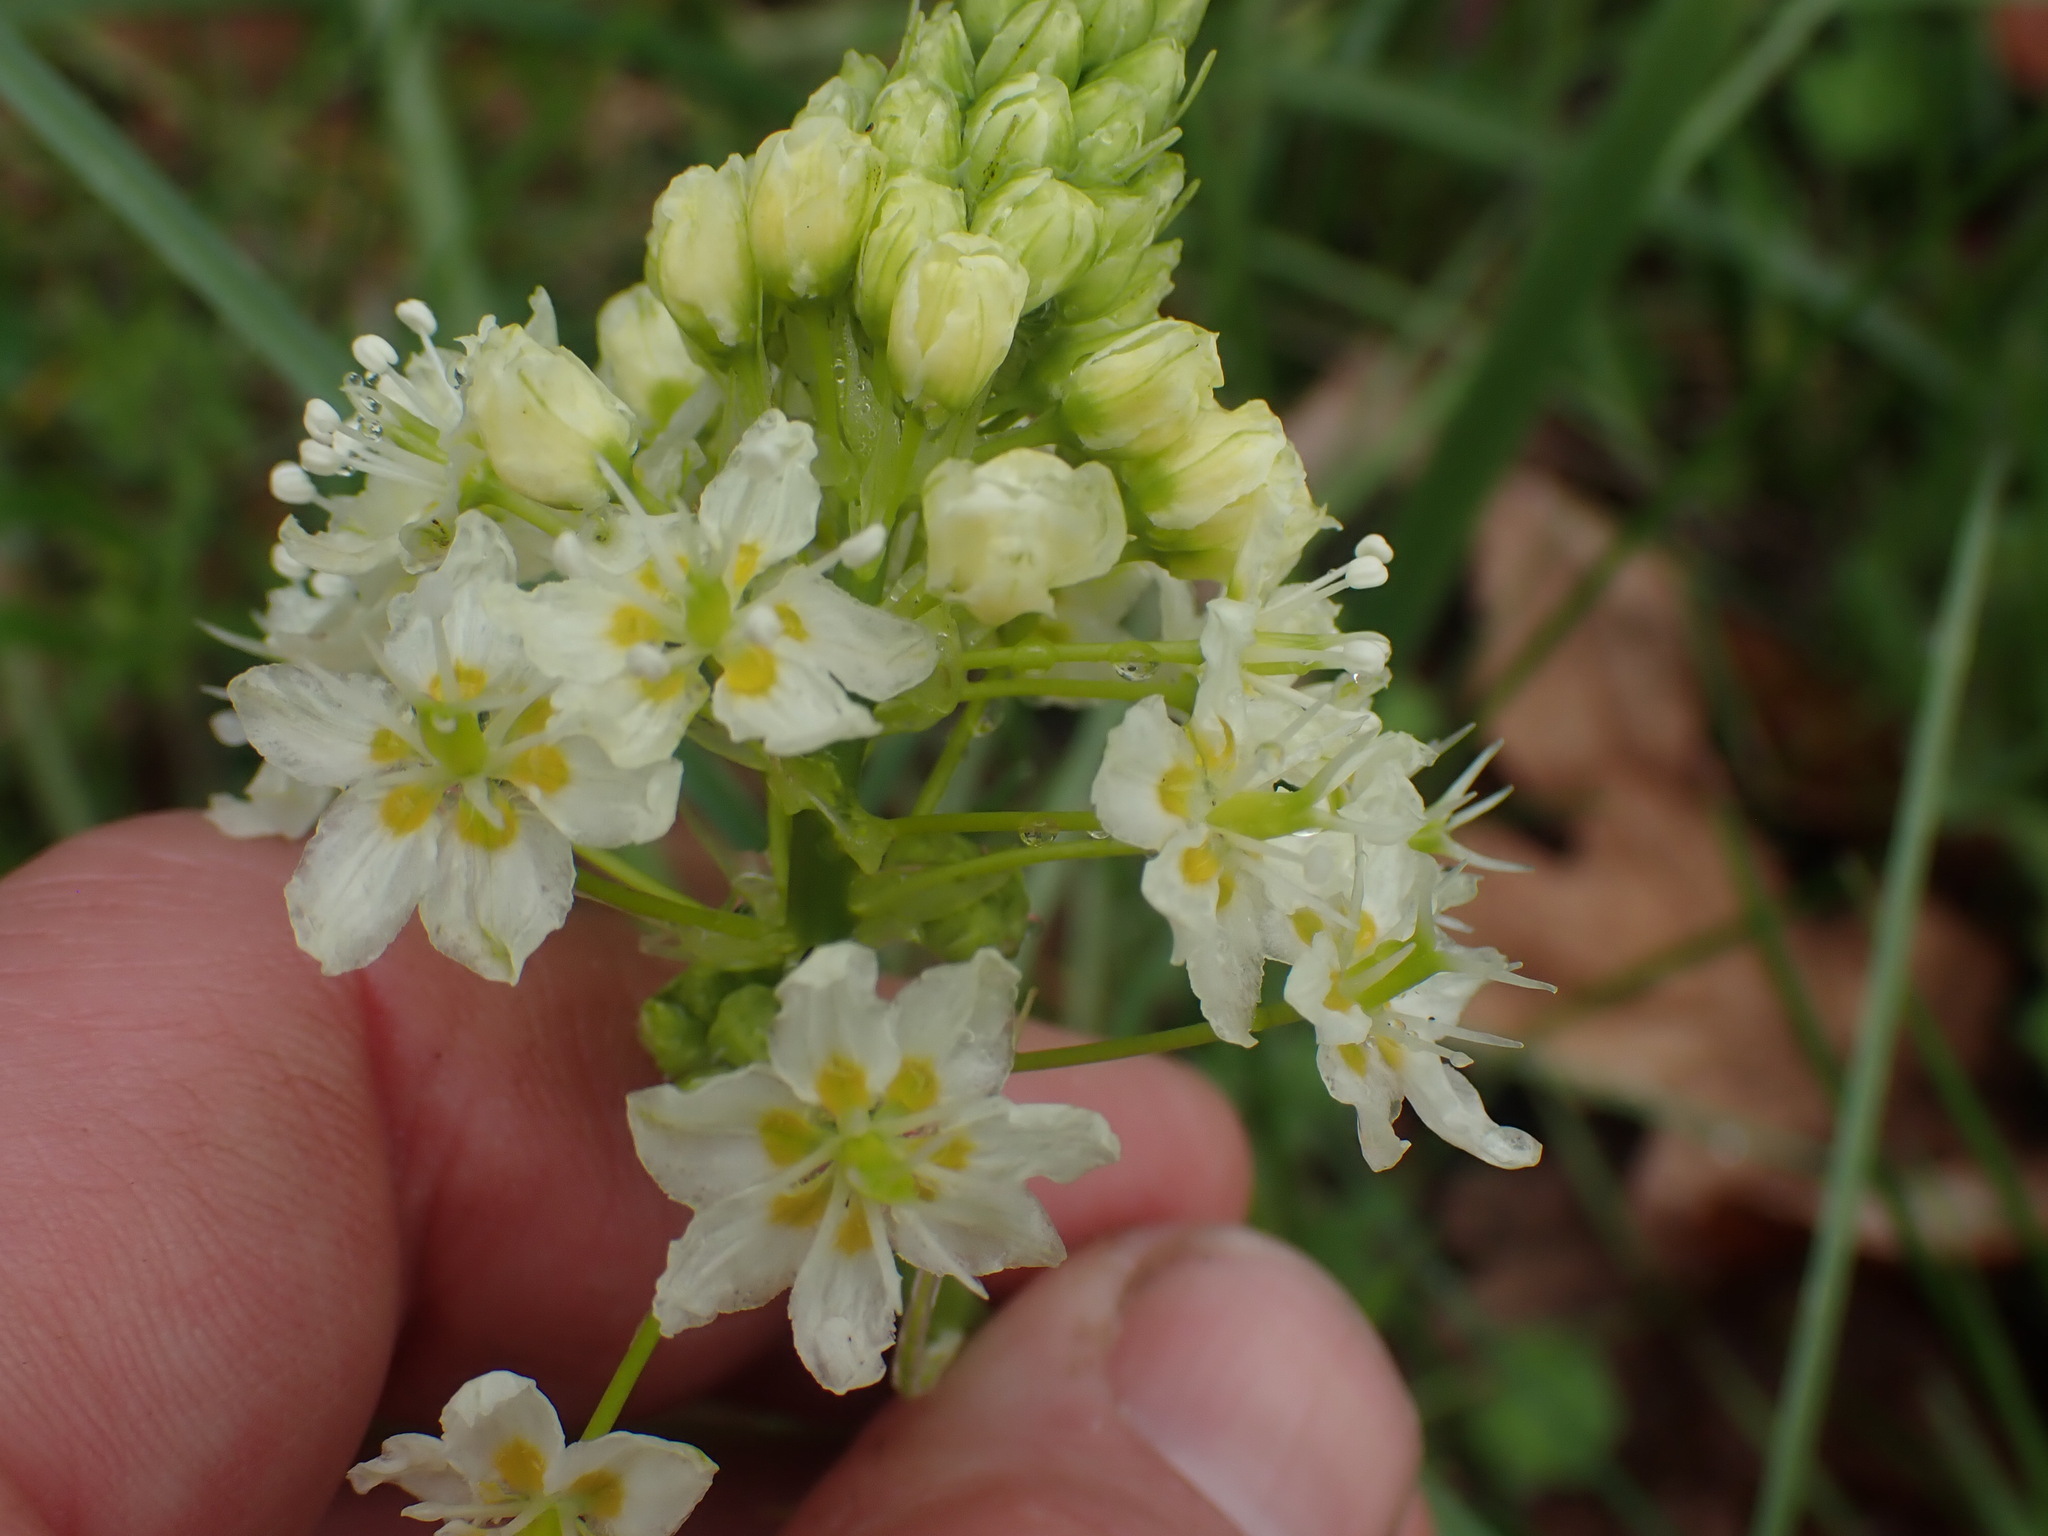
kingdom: Plantae
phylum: Tracheophyta
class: Liliopsida
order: Liliales
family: Melanthiaceae
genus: Toxicoscordion
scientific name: Toxicoscordion venenosum
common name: Meadow death camas
